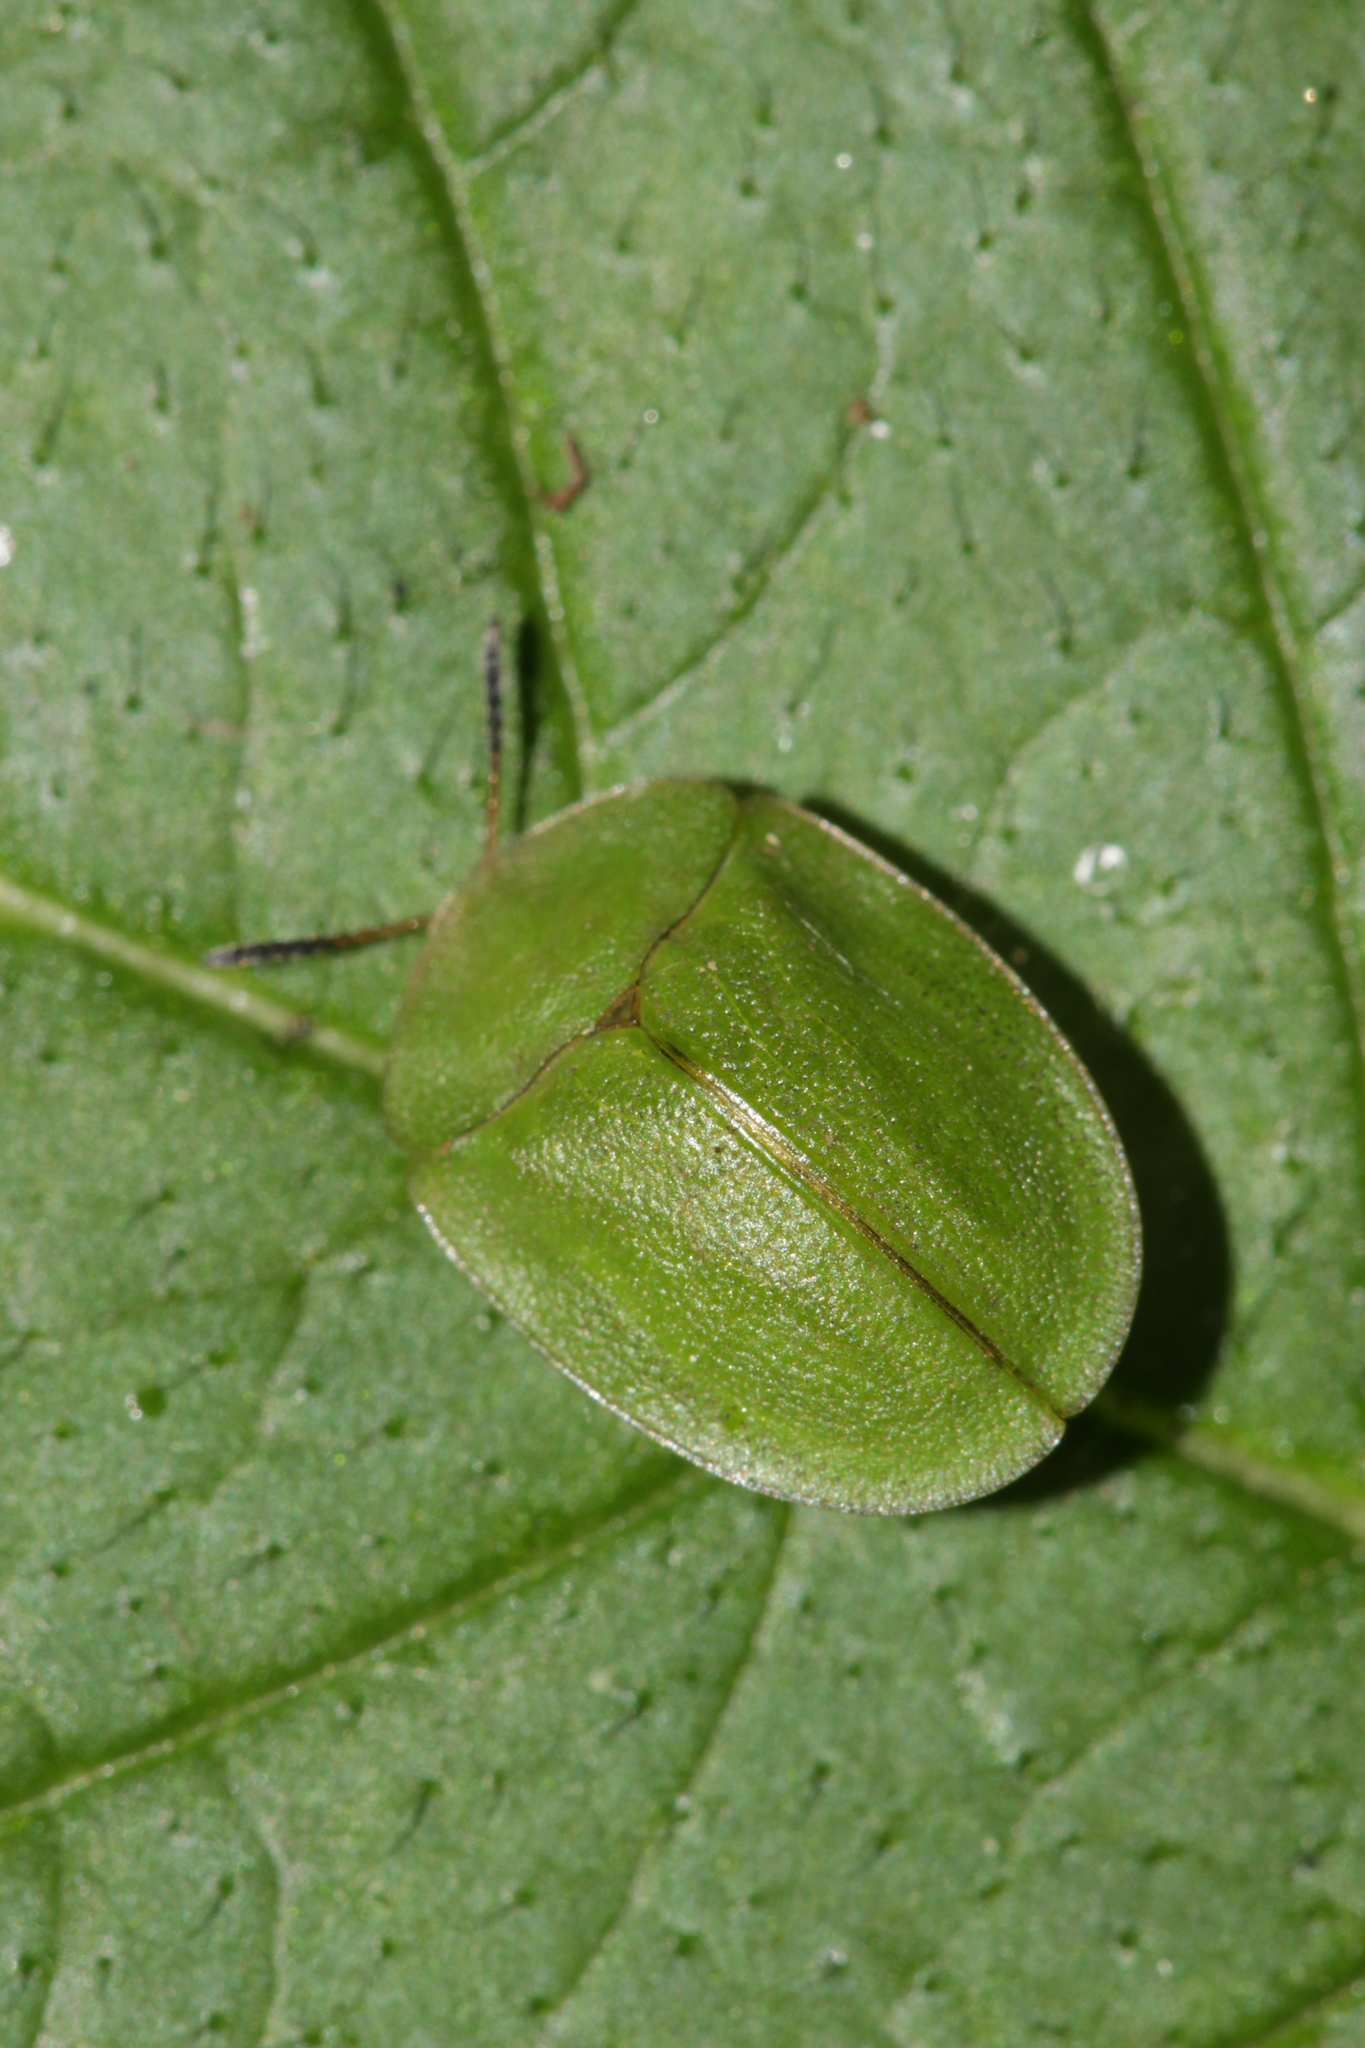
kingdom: Animalia
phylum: Arthropoda
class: Insecta
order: Coleoptera
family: Chrysomelidae
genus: Cassida
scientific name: Cassida viridis
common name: Green tortoise beetle
